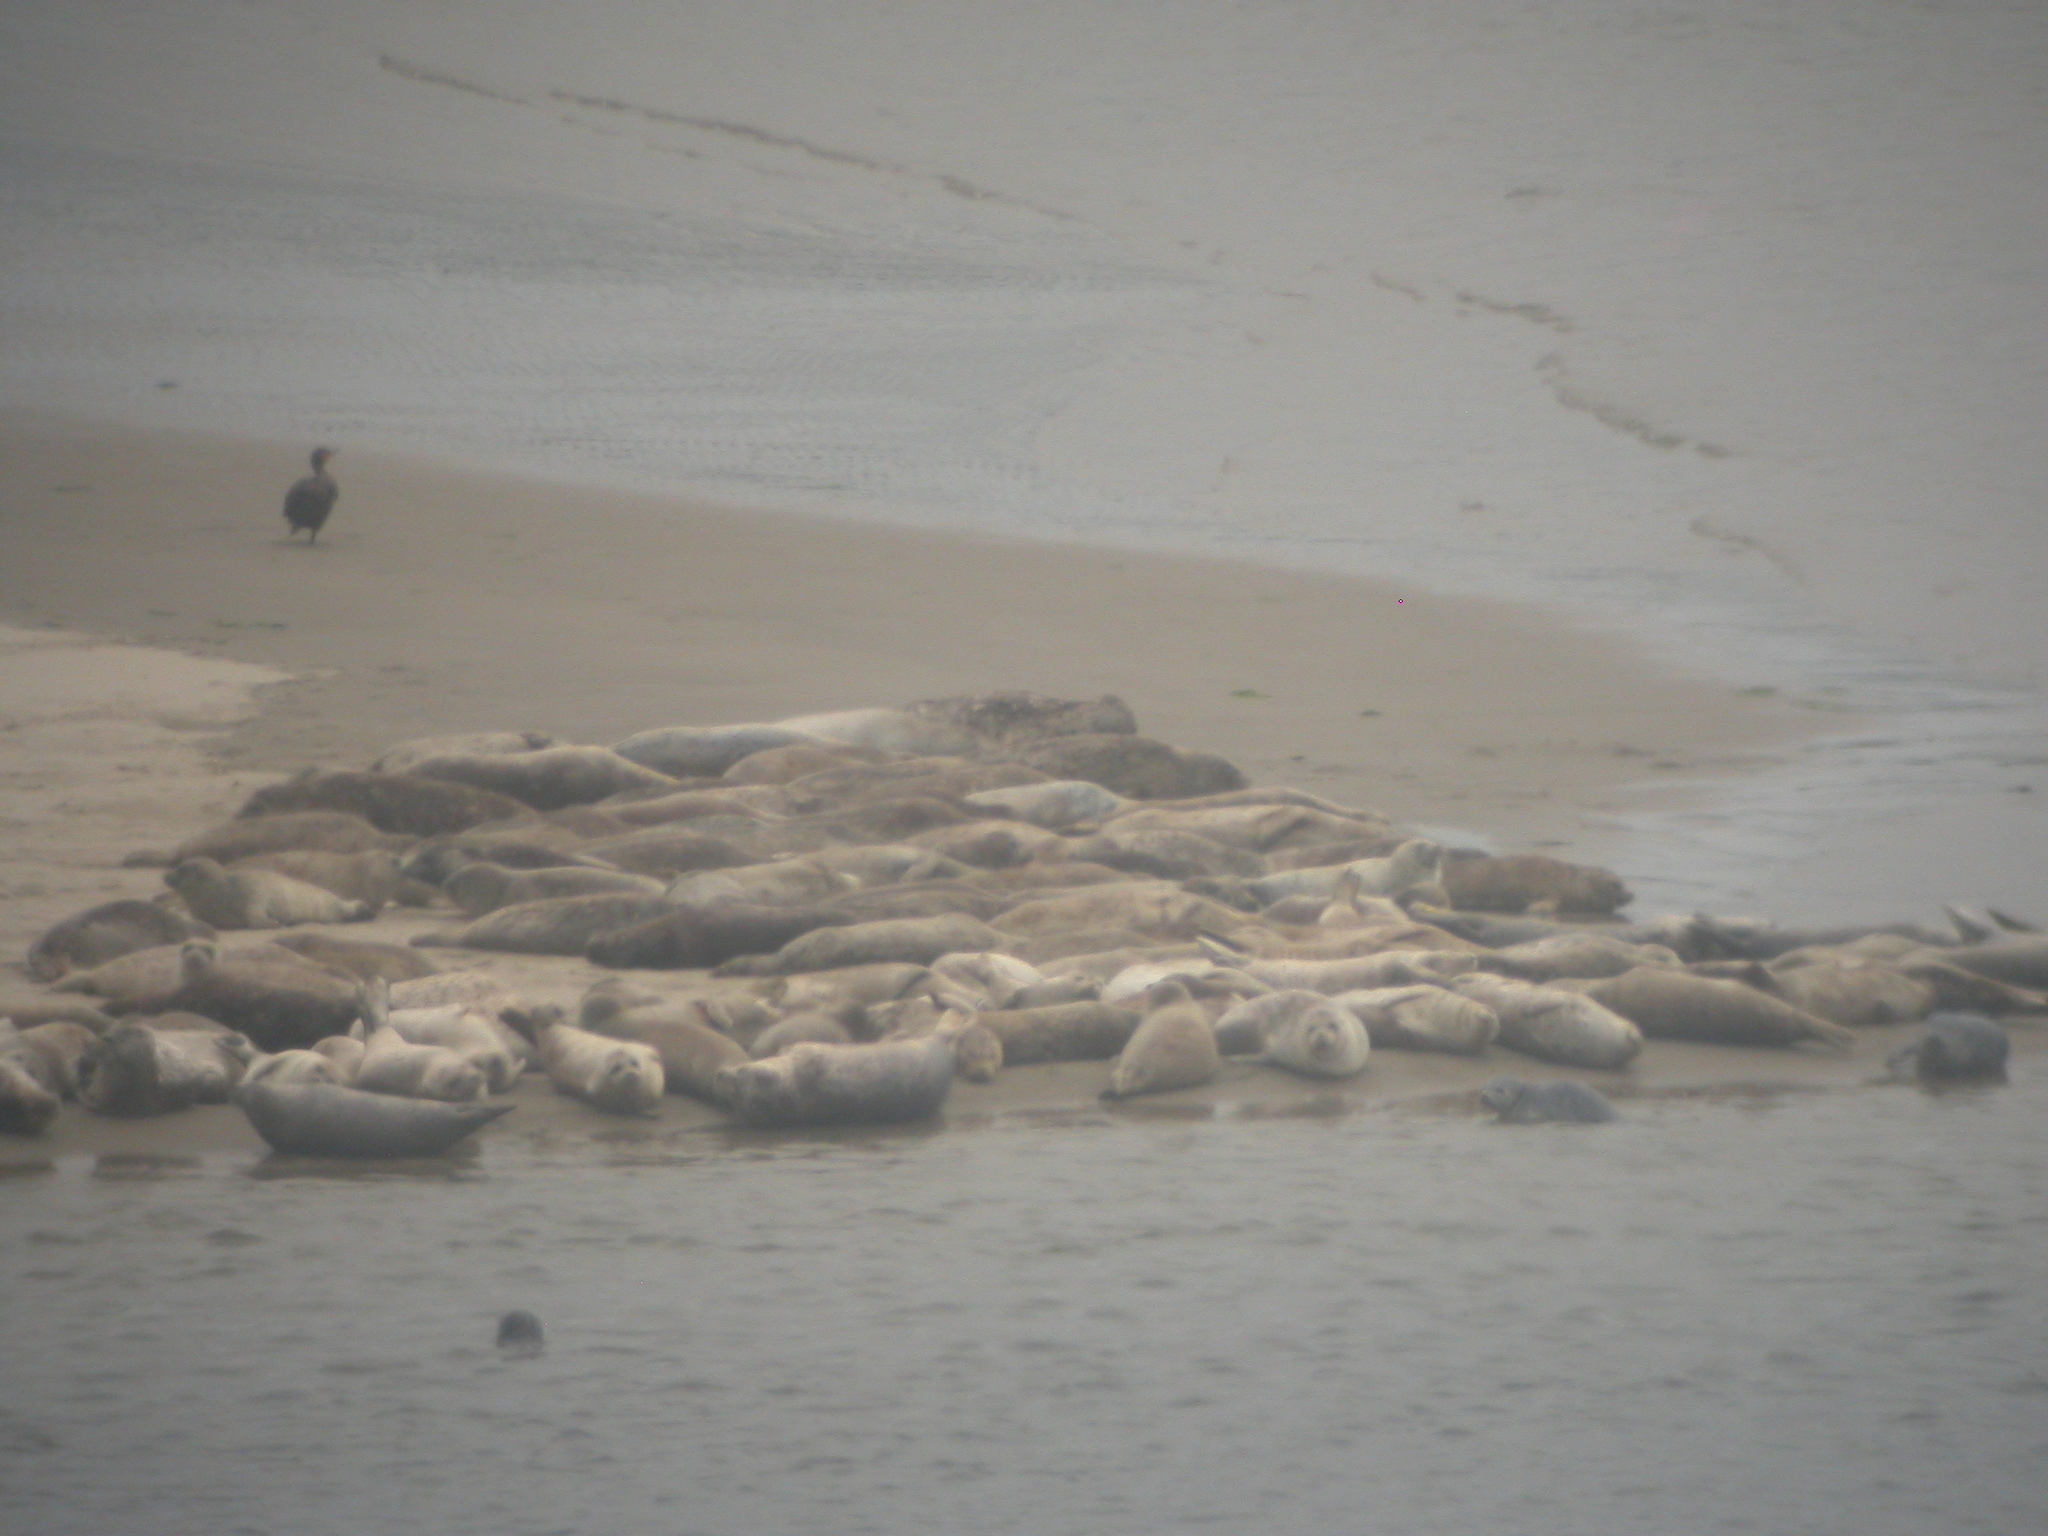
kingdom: Animalia
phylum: Chordata
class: Mammalia
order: Carnivora
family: Phocidae
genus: Phoca
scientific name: Phoca vitulina
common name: Harbor seal
